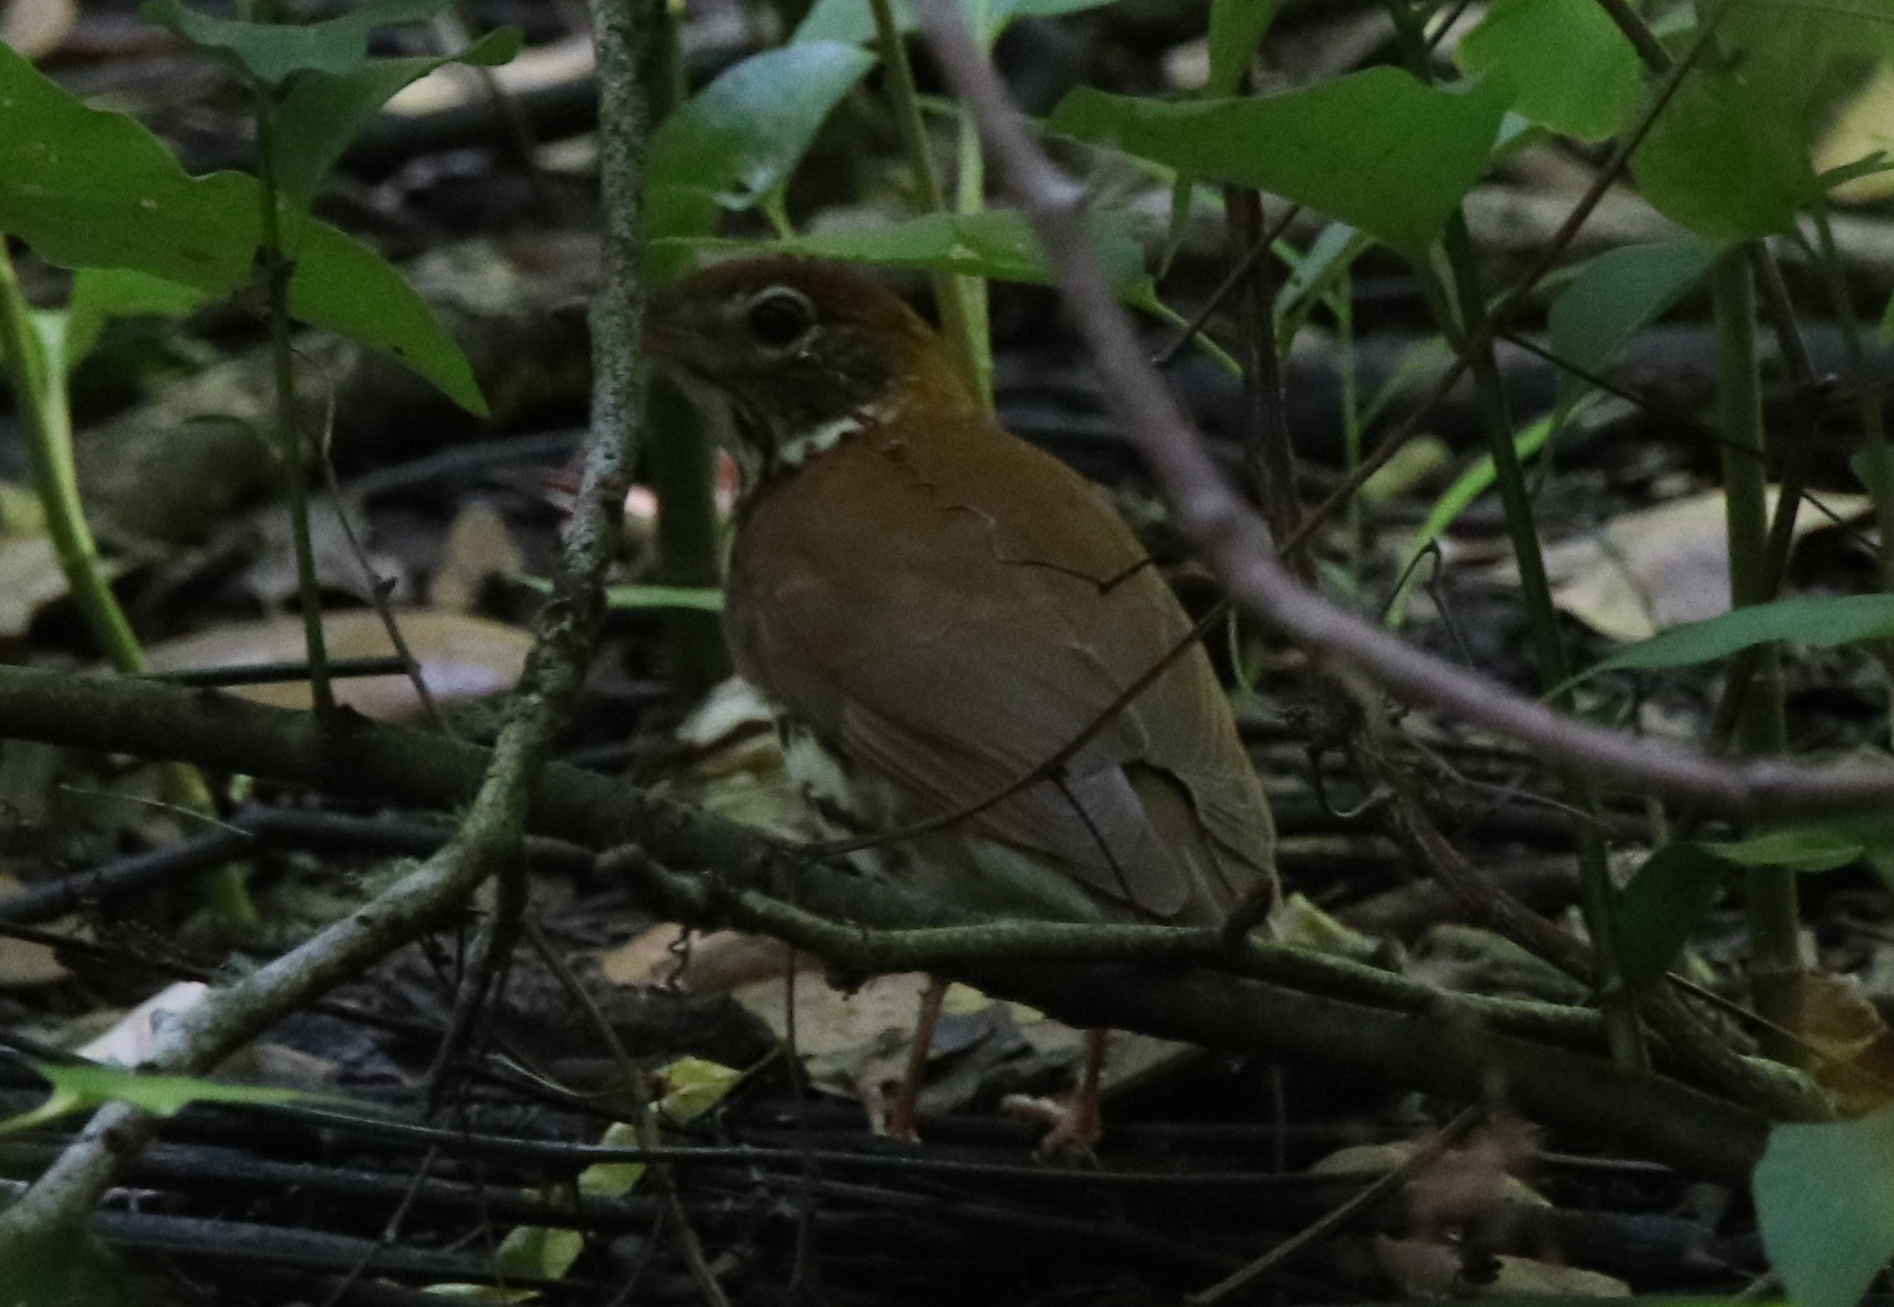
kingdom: Animalia
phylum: Chordata
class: Aves
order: Passeriformes
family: Turdidae
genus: Hylocichla
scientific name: Hylocichla mustelina
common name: Wood thrush
